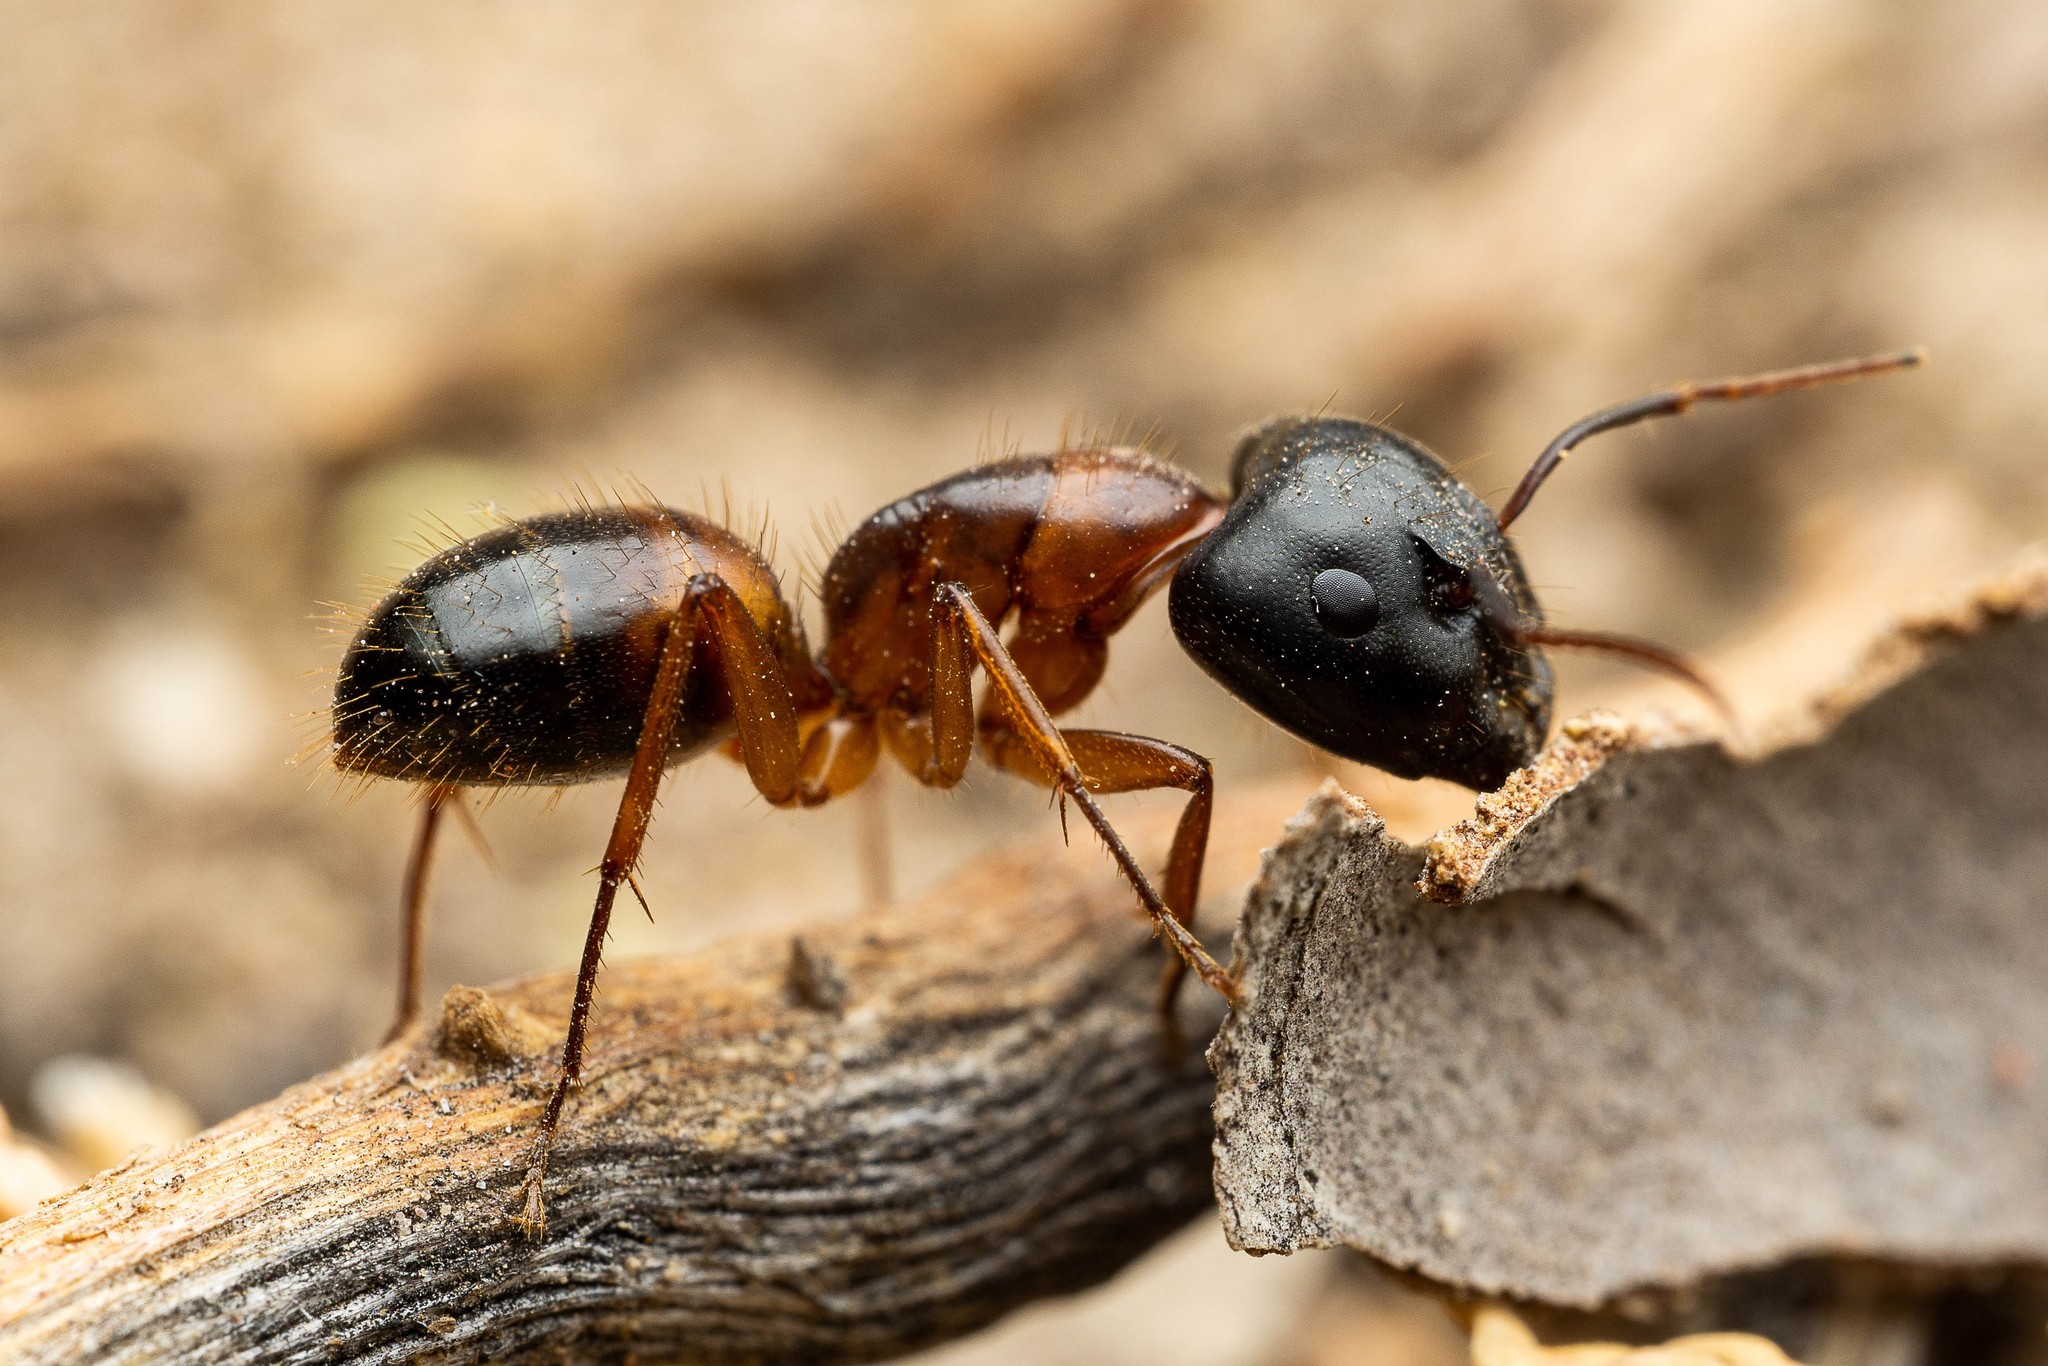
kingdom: Animalia
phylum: Arthropoda
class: Insecta
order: Hymenoptera
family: Formicidae
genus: Camponotus
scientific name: Camponotus sansabeanus
